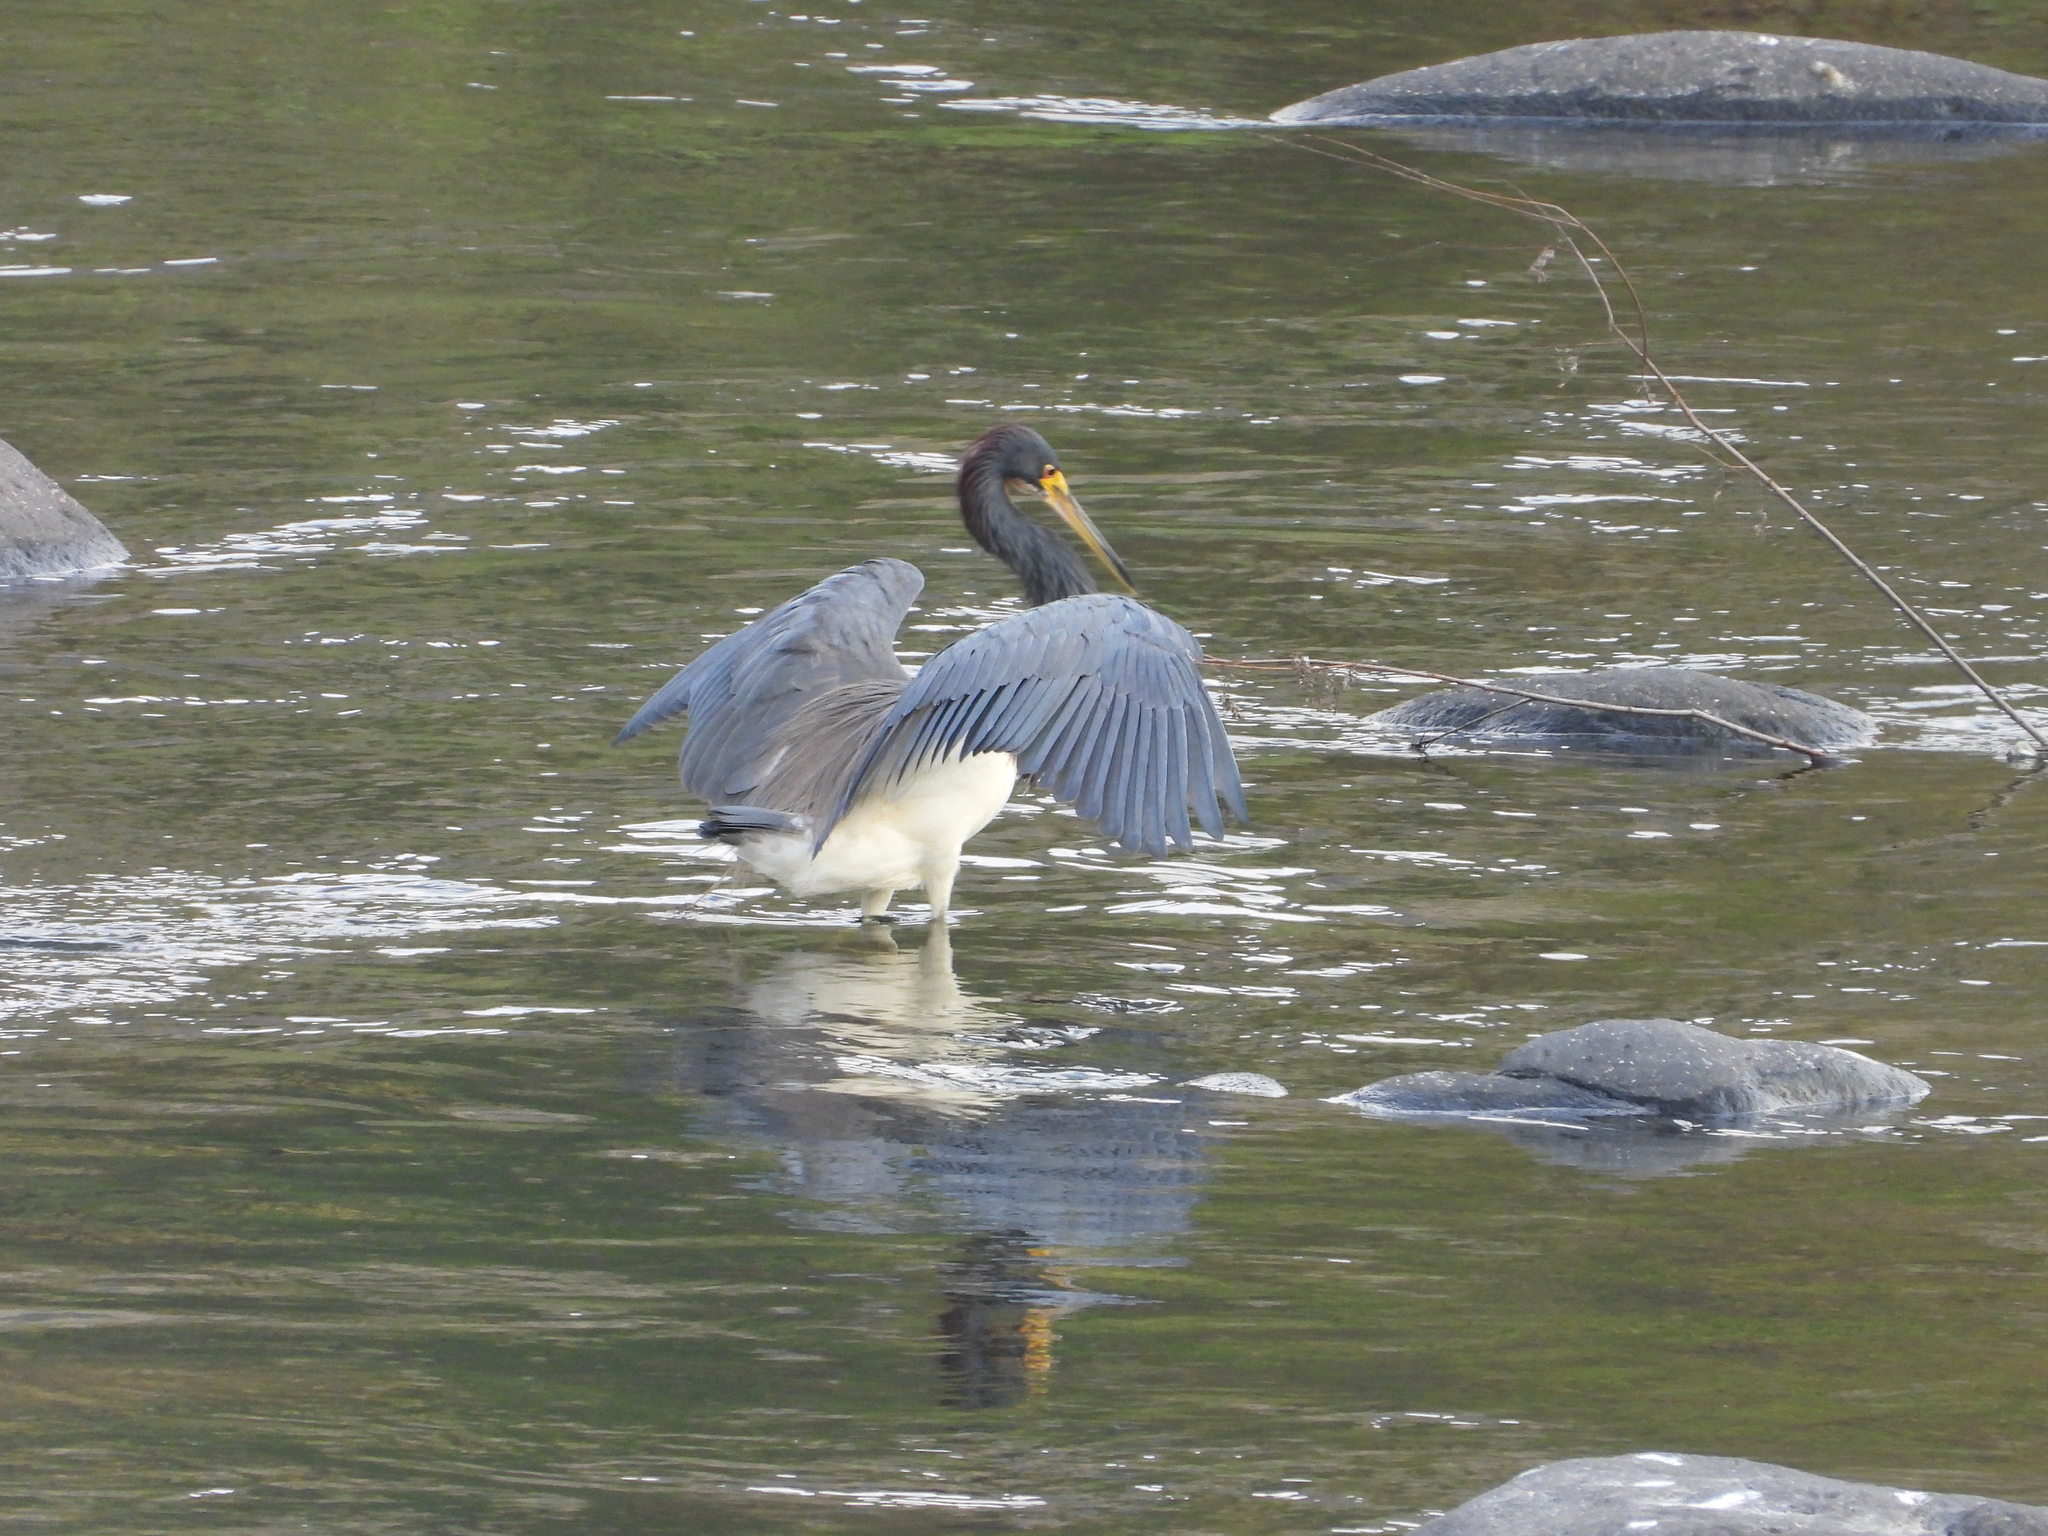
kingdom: Animalia
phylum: Chordata
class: Aves
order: Pelecaniformes
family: Ardeidae
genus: Egretta
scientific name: Egretta tricolor
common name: Tricolored heron
